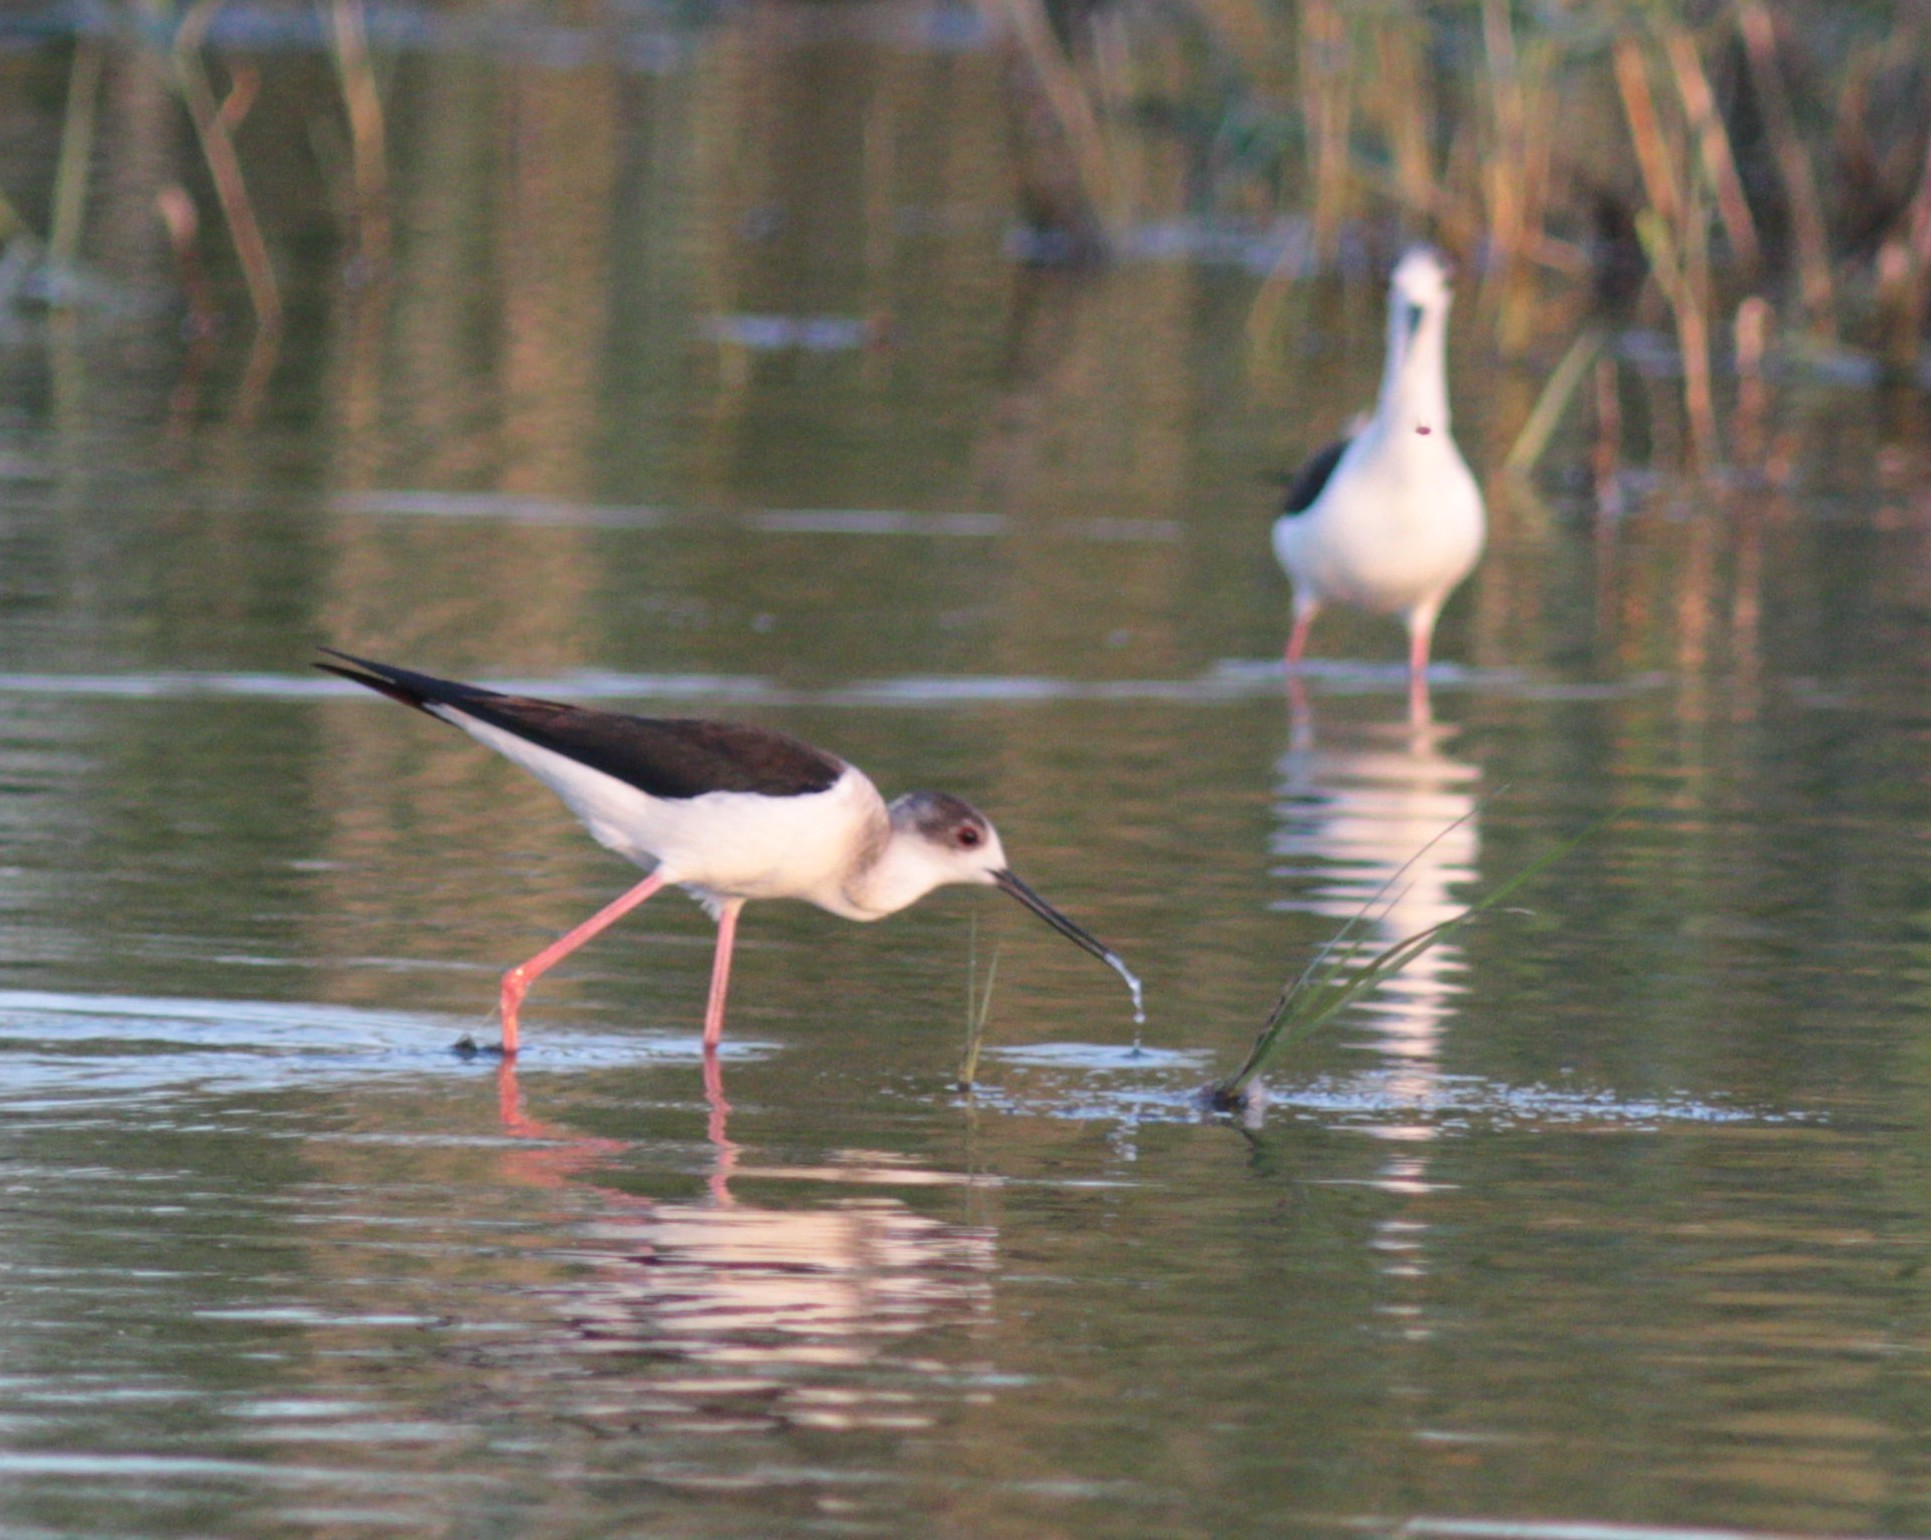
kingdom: Animalia
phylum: Chordata
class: Aves
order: Charadriiformes
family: Recurvirostridae
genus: Himantopus
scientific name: Himantopus himantopus
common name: Black-winged stilt
